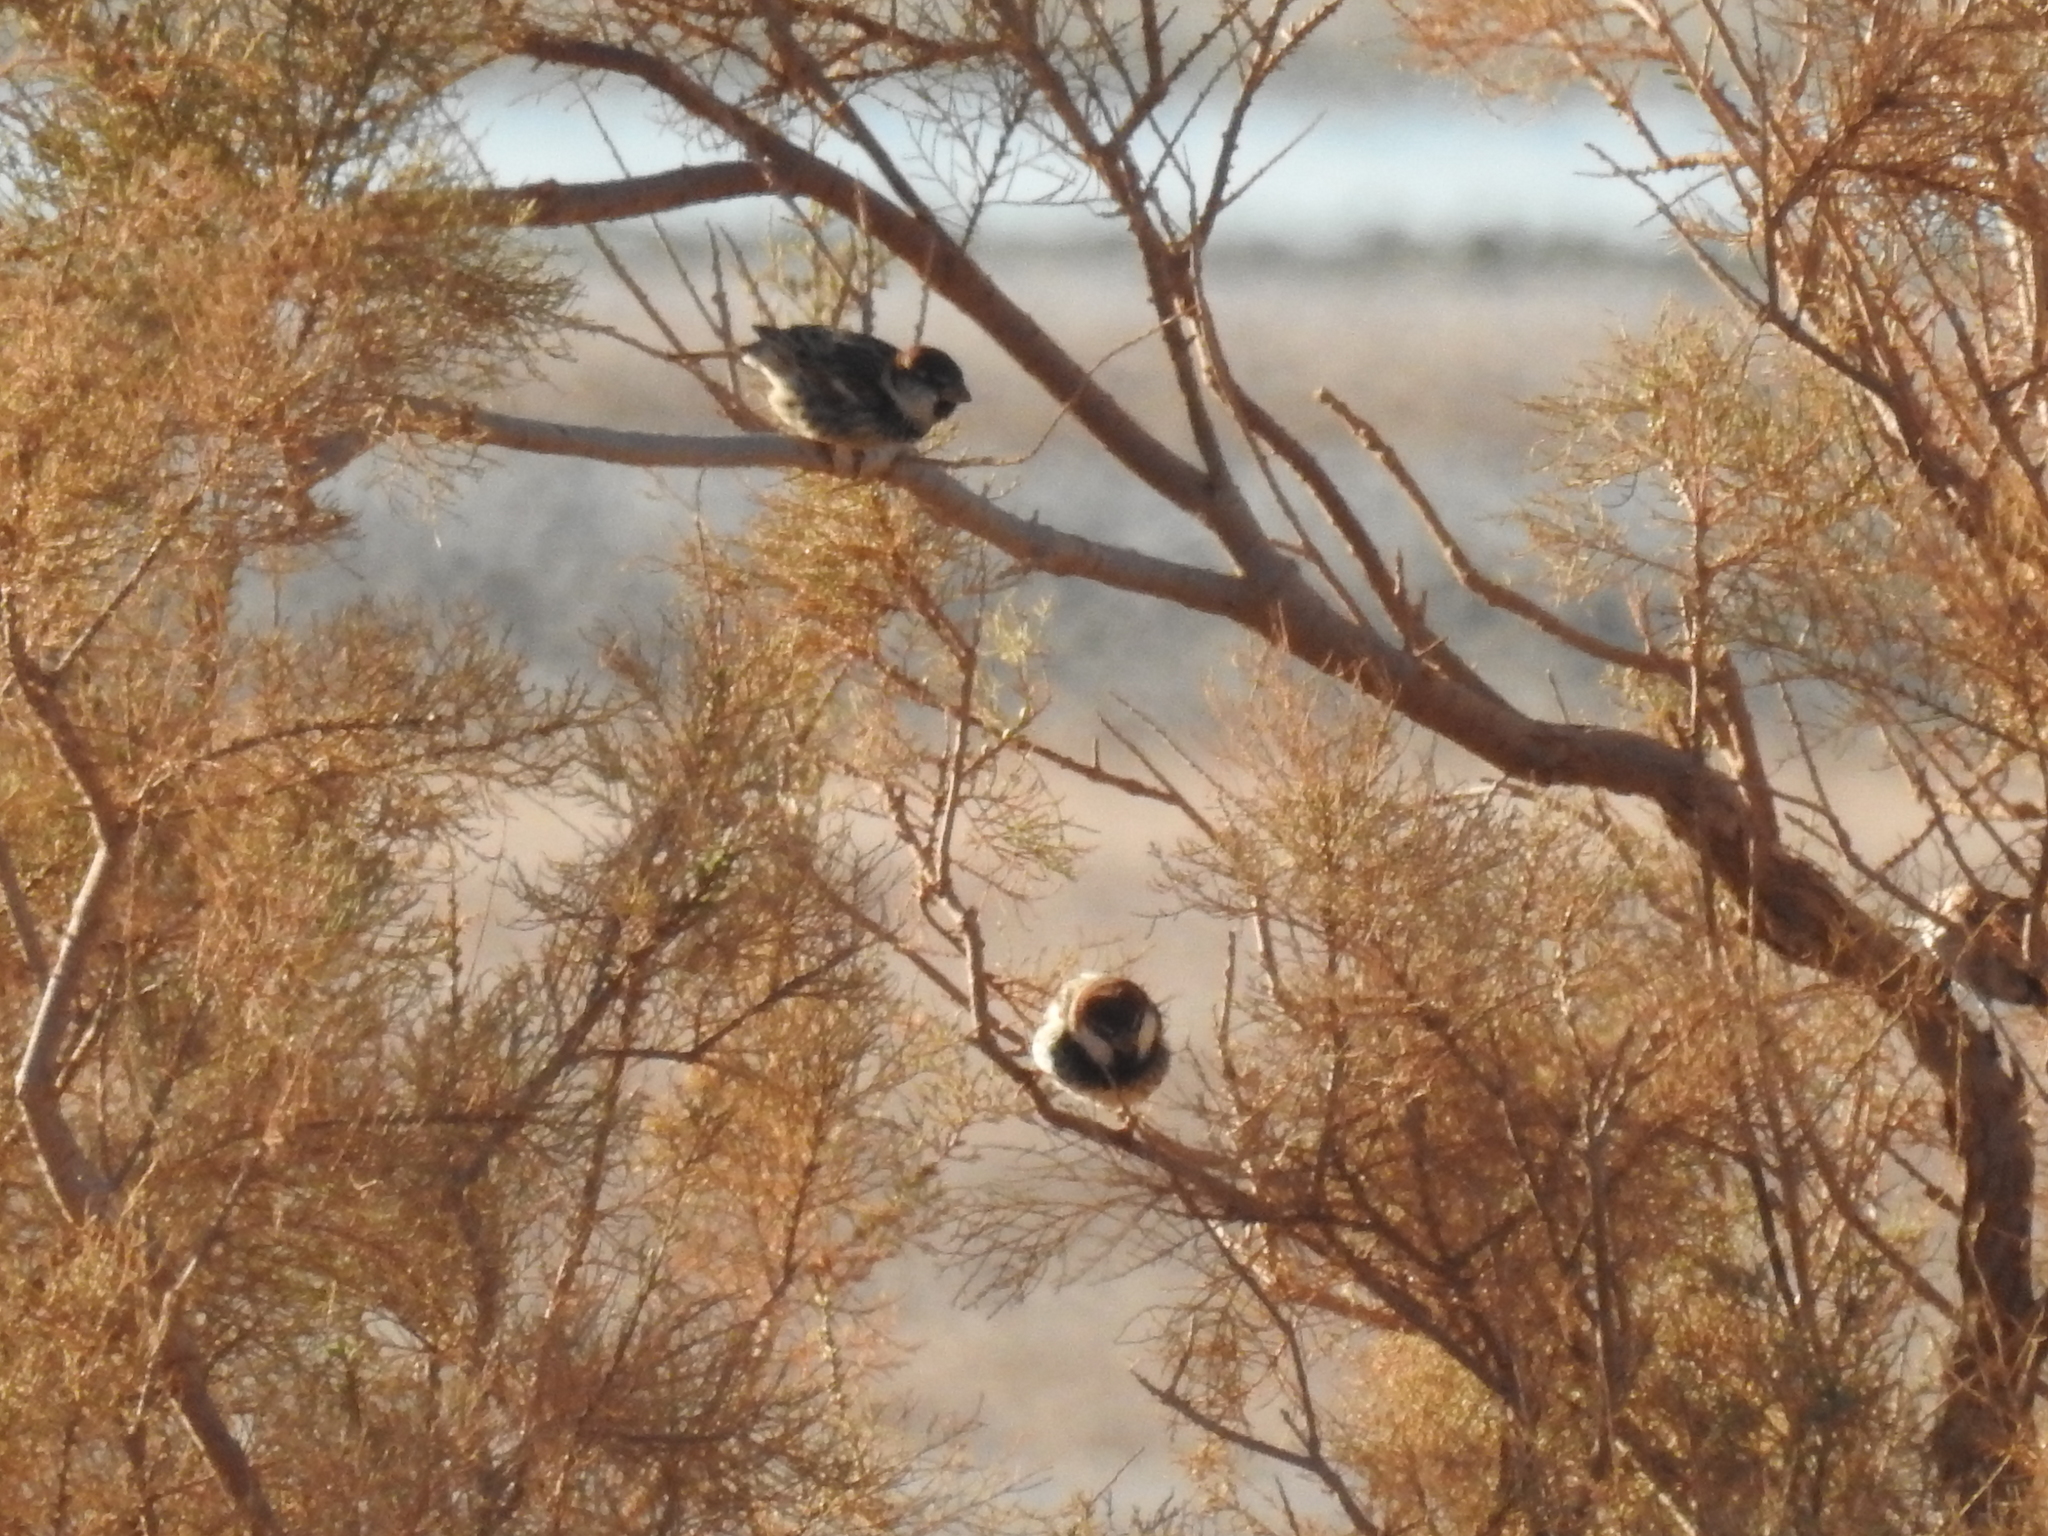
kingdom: Animalia
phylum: Chordata
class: Aves
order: Passeriformes
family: Passeridae
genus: Passer
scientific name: Passer hispaniolensis
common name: Spanish sparrow
